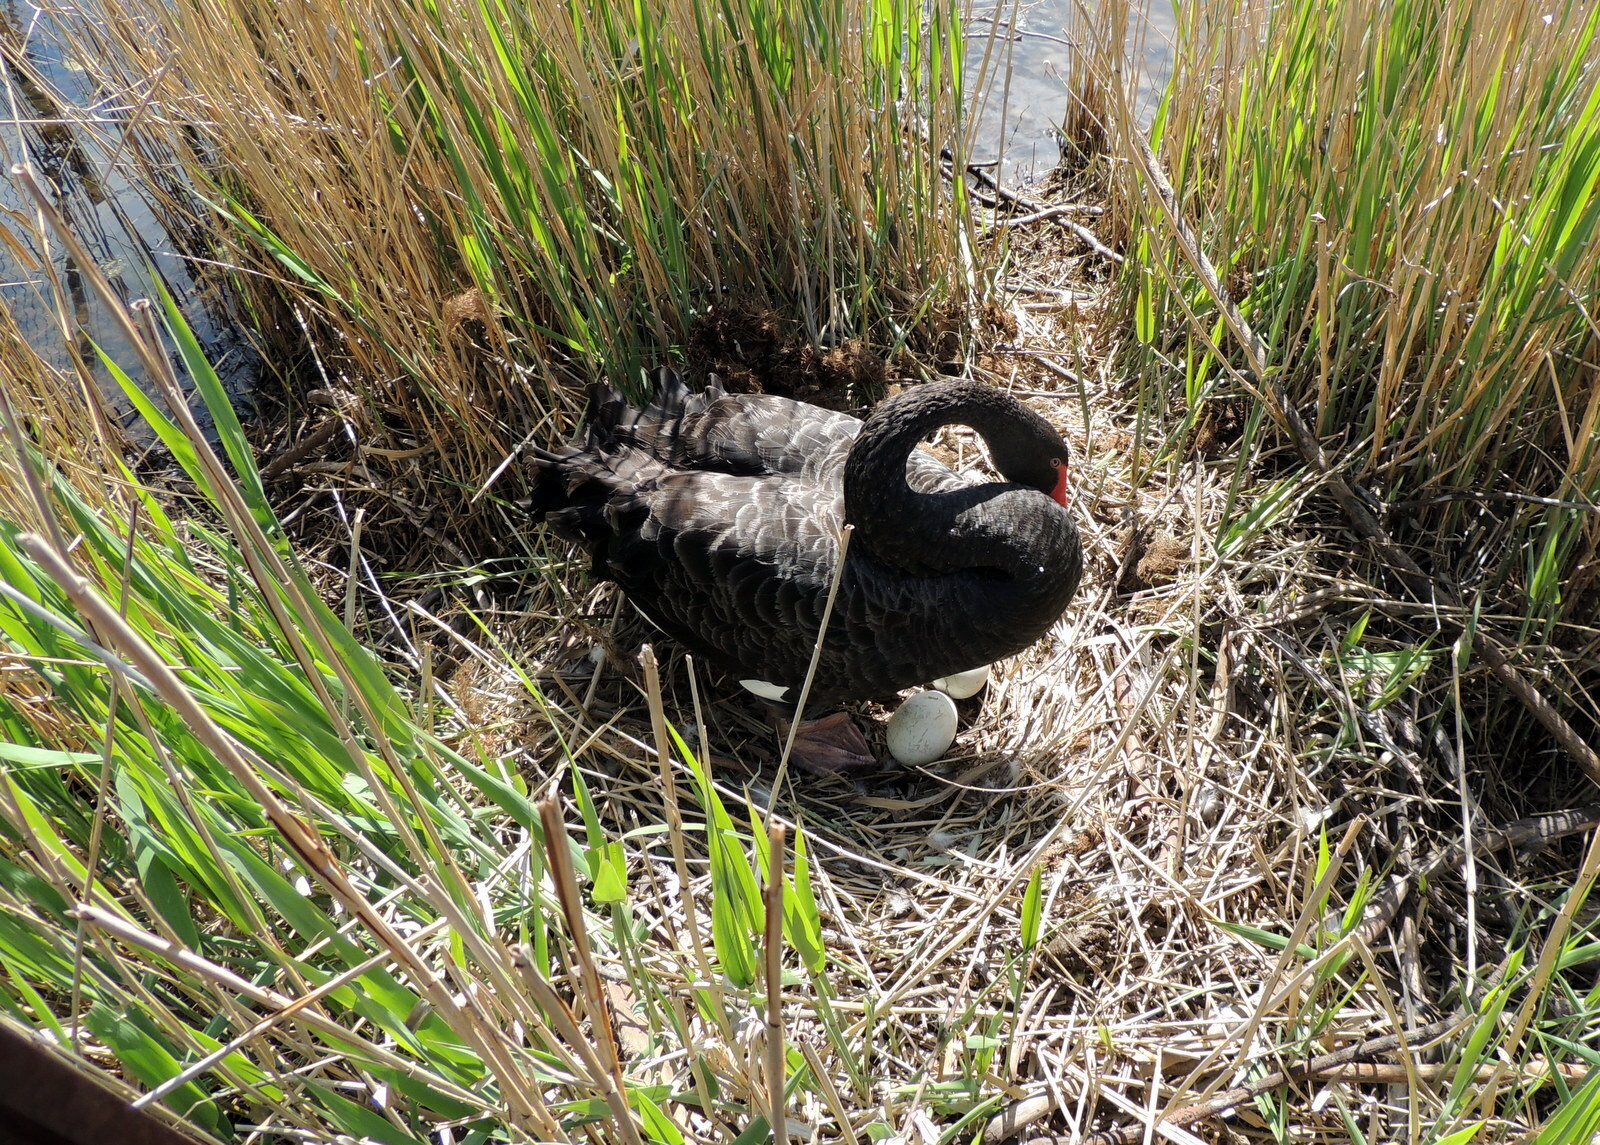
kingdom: Animalia
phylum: Chordata
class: Aves
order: Anseriformes
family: Anatidae
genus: Cygnus
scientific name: Cygnus atratus
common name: Black swan
